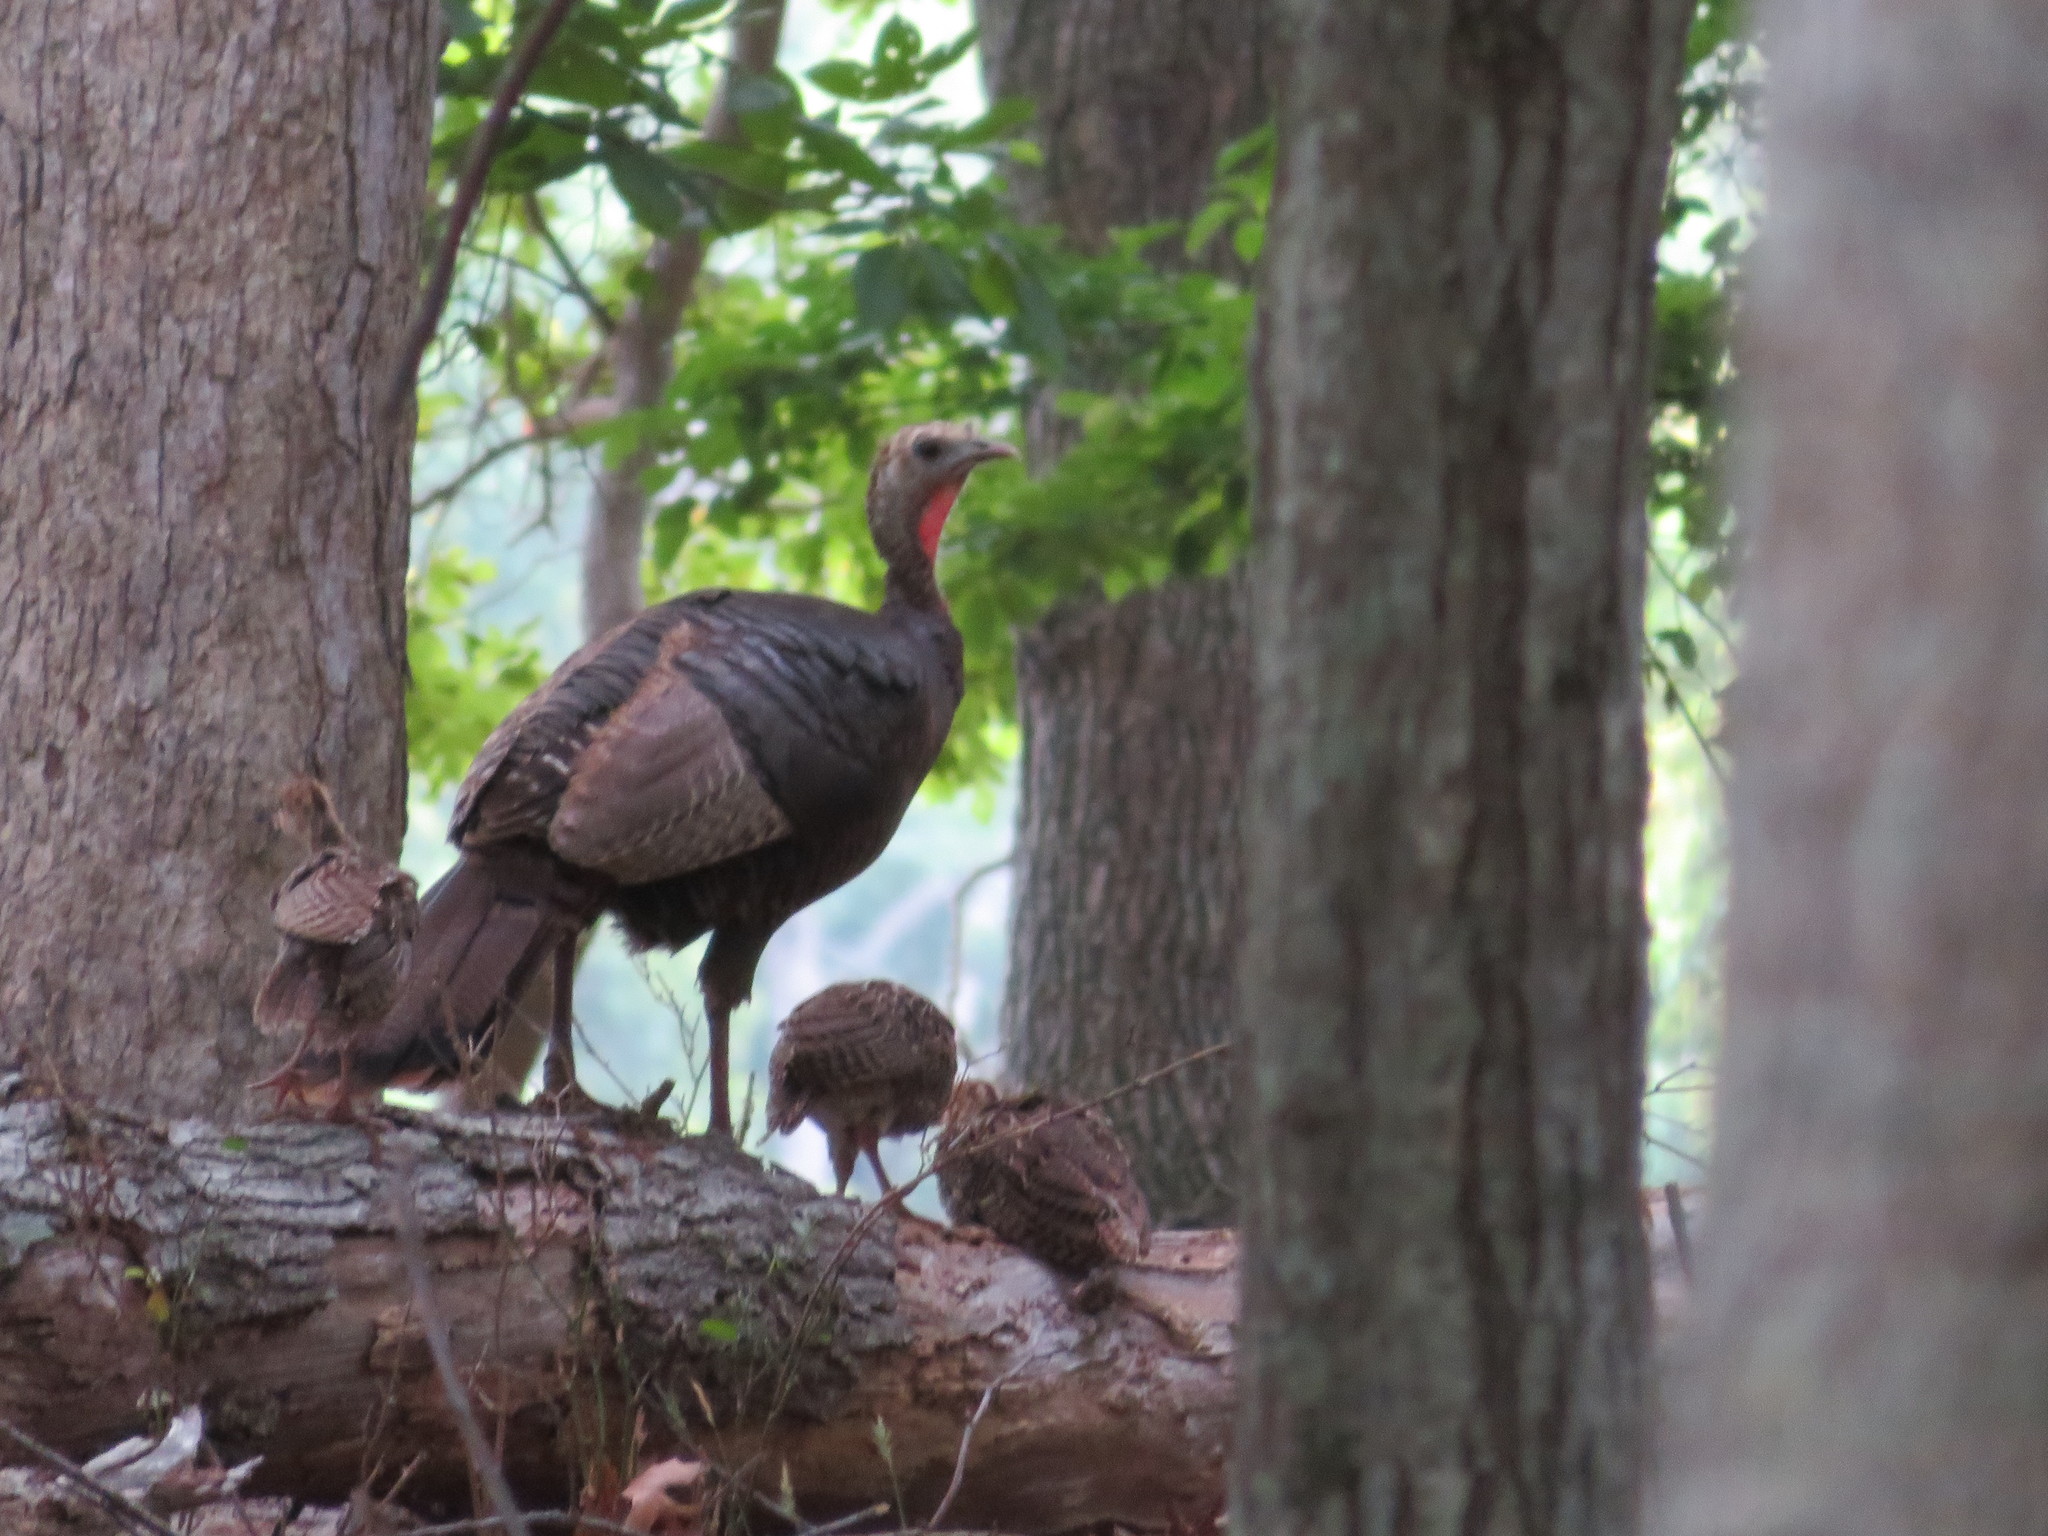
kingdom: Animalia
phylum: Chordata
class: Aves
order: Galliformes
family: Phasianidae
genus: Meleagris
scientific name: Meleagris gallopavo
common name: Wild turkey
